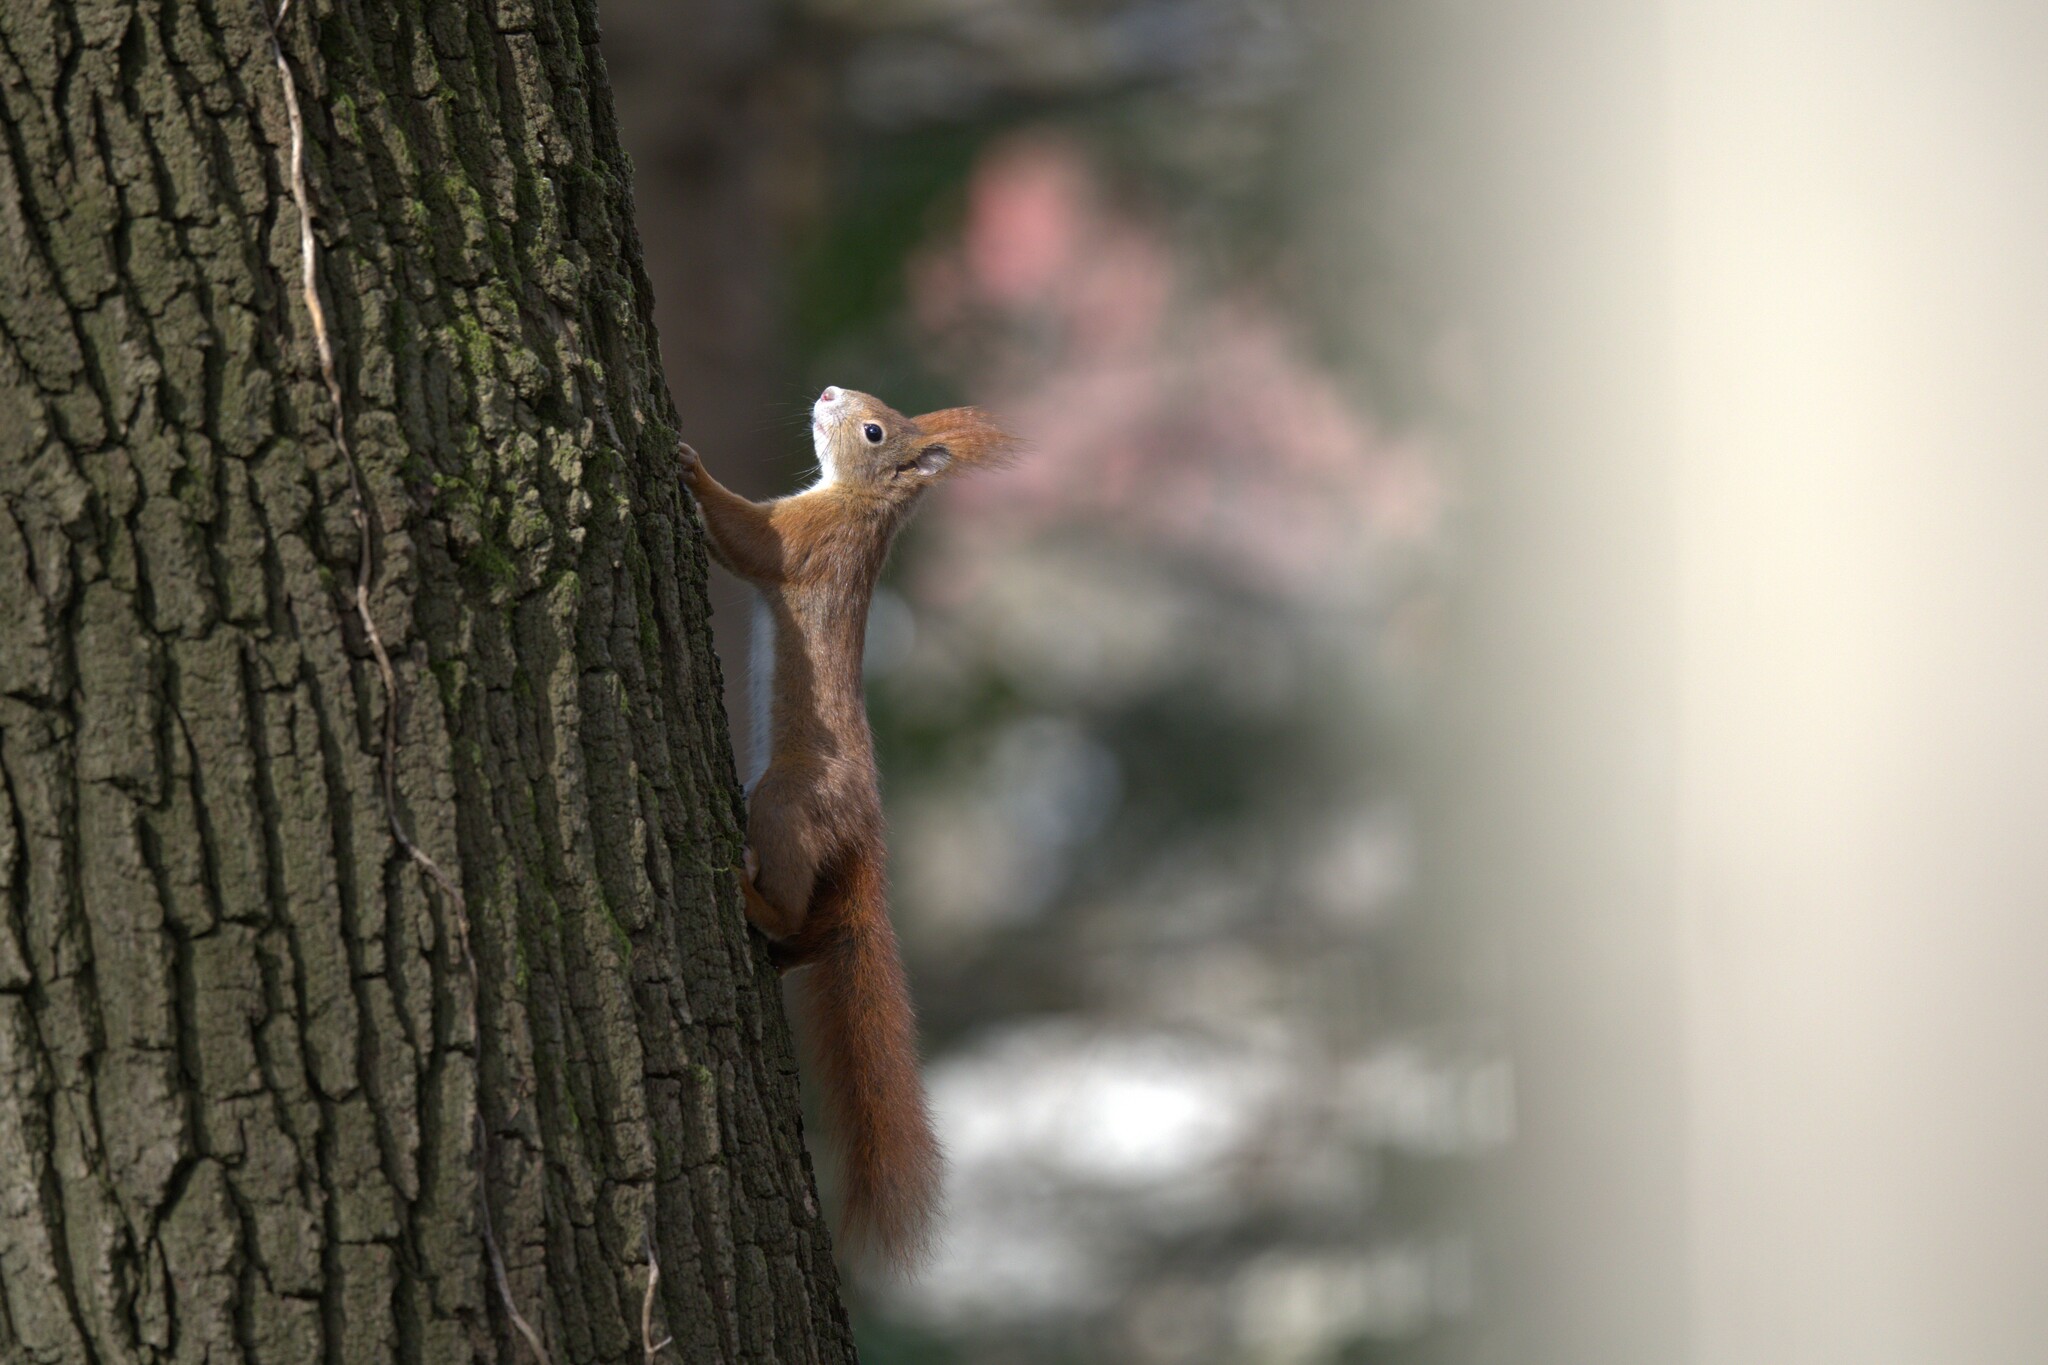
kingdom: Animalia
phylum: Chordata
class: Mammalia
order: Rodentia
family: Sciuridae
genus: Sciurus
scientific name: Sciurus vulgaris
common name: Eurasian red squirrel
